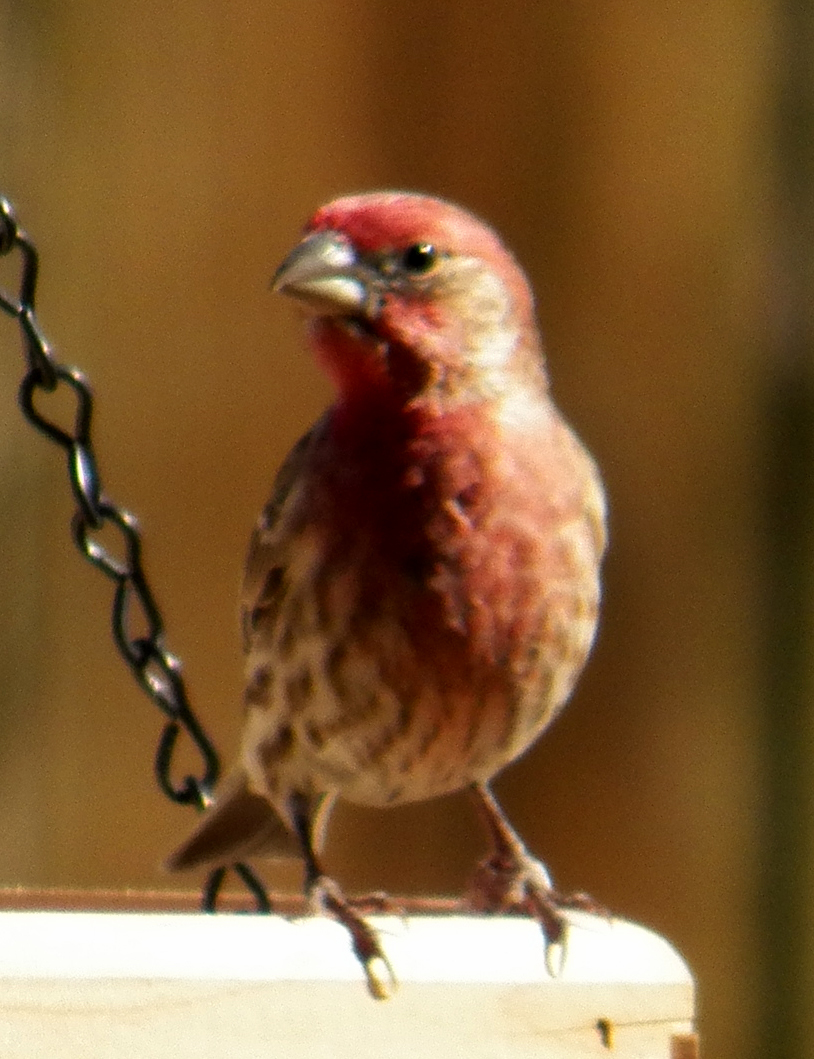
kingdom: Animalia
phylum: Chordata
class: Aves
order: Passeriformes
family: Fringillidae
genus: Haemorhous
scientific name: Haemorhous mexicanus
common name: House finch
